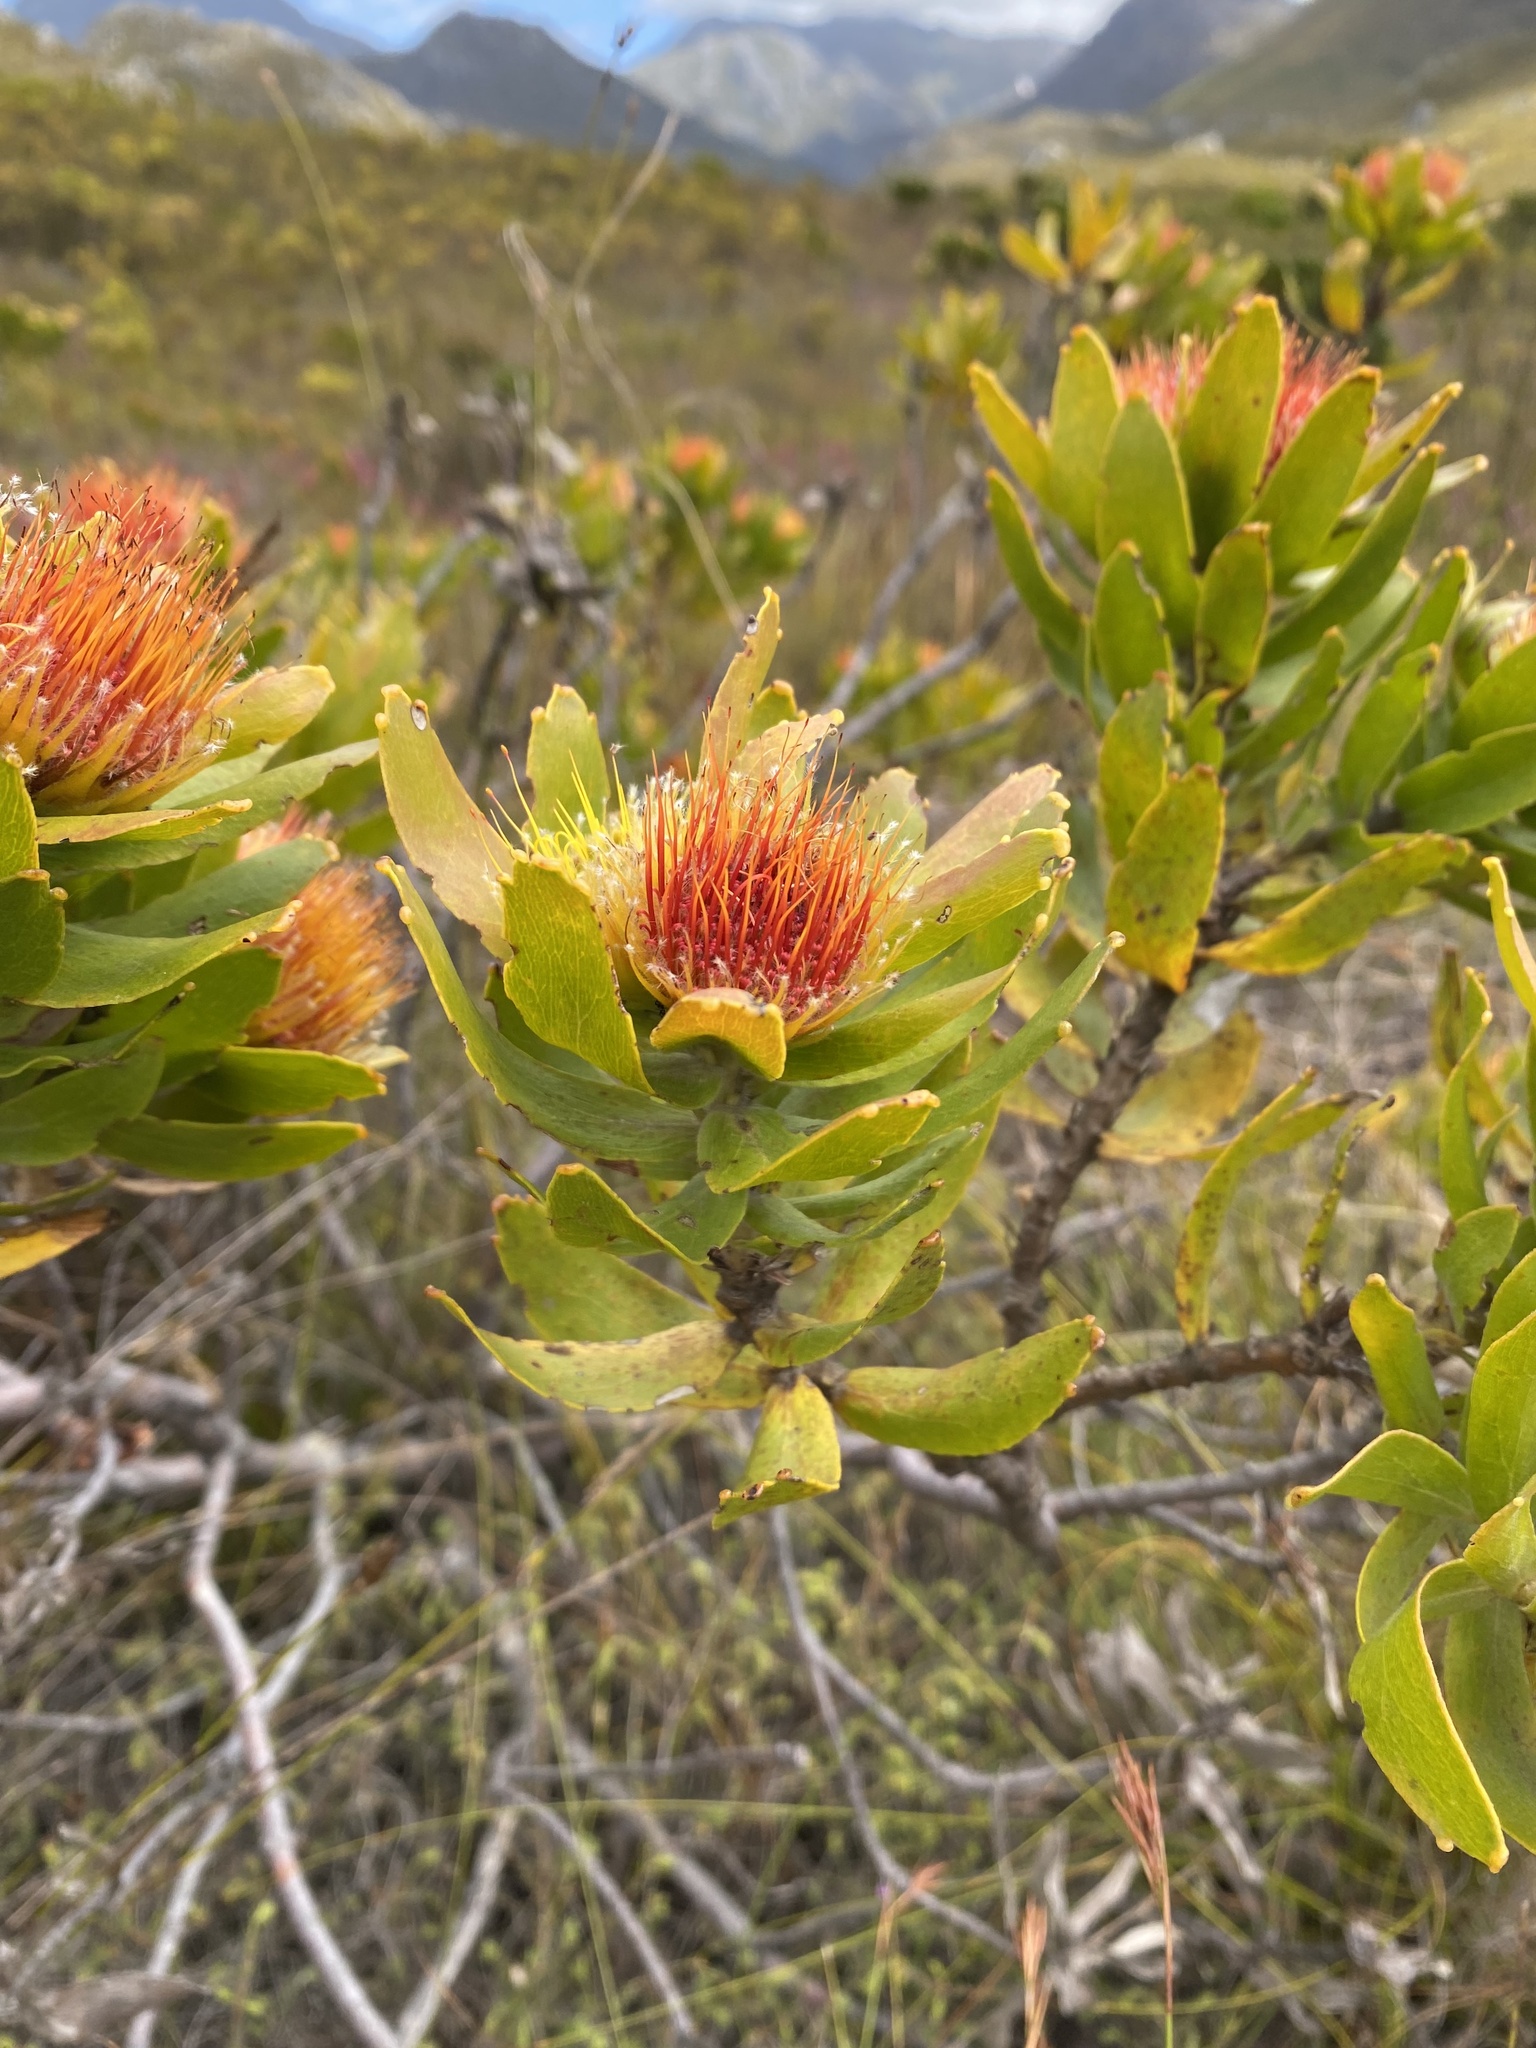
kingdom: Plantae
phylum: Tracheophyta
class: Magnoliopsida
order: Proteales
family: Proteaceae
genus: Leucospermum
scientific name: Leucospermum oleifolium
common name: Matches
